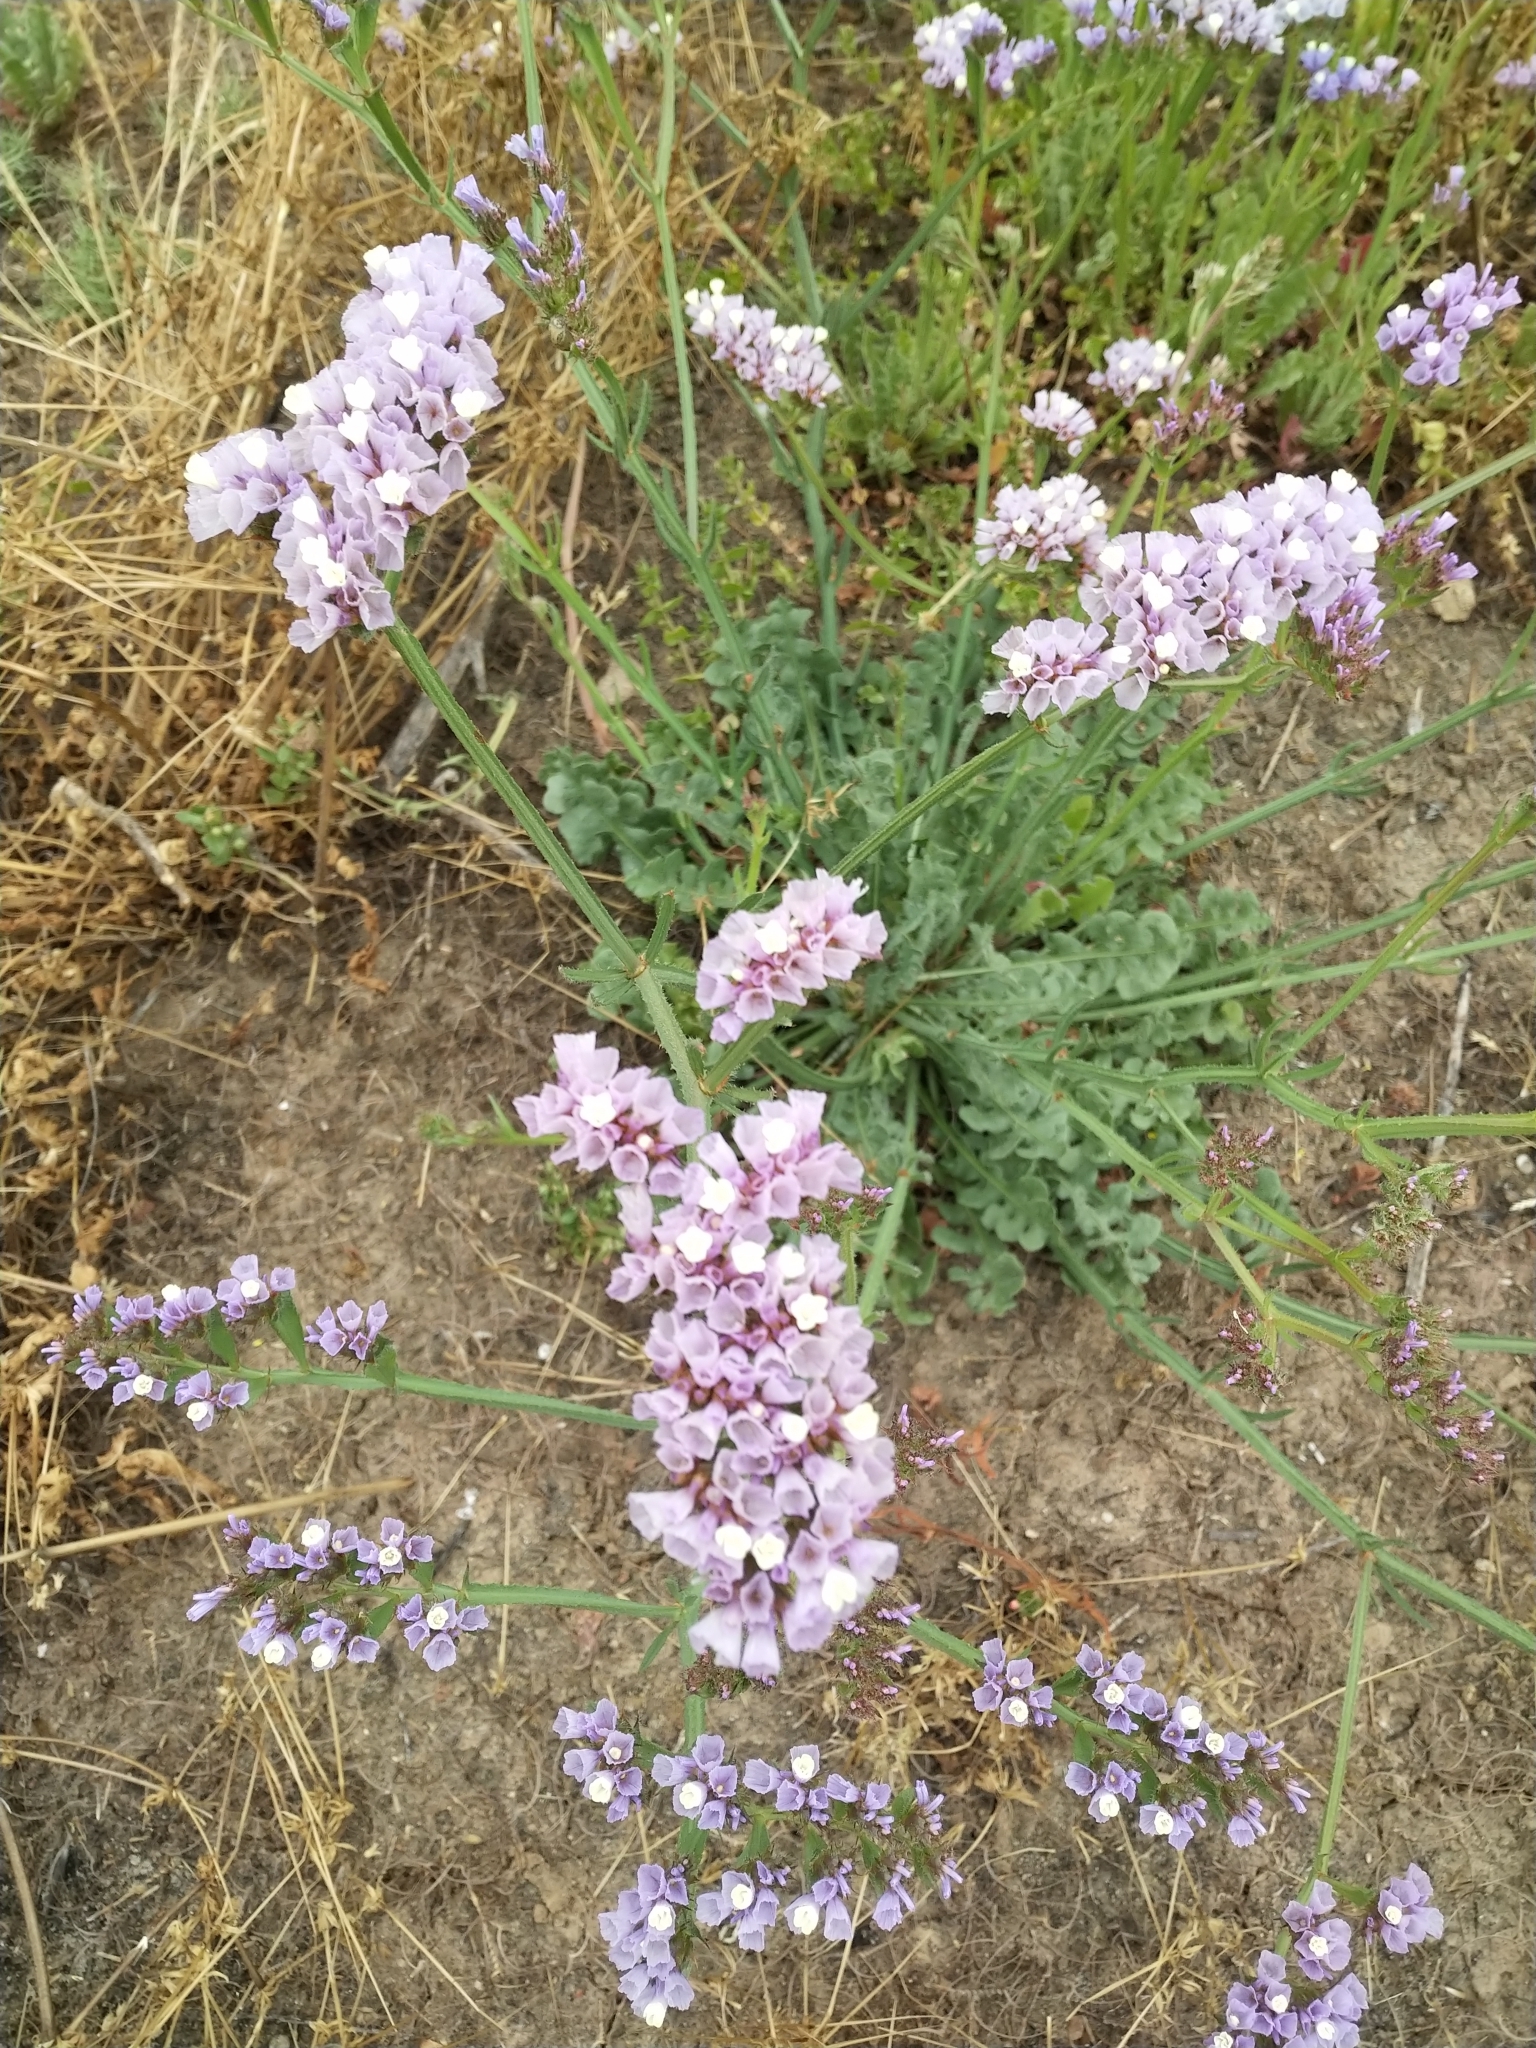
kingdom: Plantae
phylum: Tracheophyta
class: Magnoliopsida
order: Caryophyllales
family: Plumbaginaceae
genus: Limonium
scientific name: Limonium sinuatum
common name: Statice
